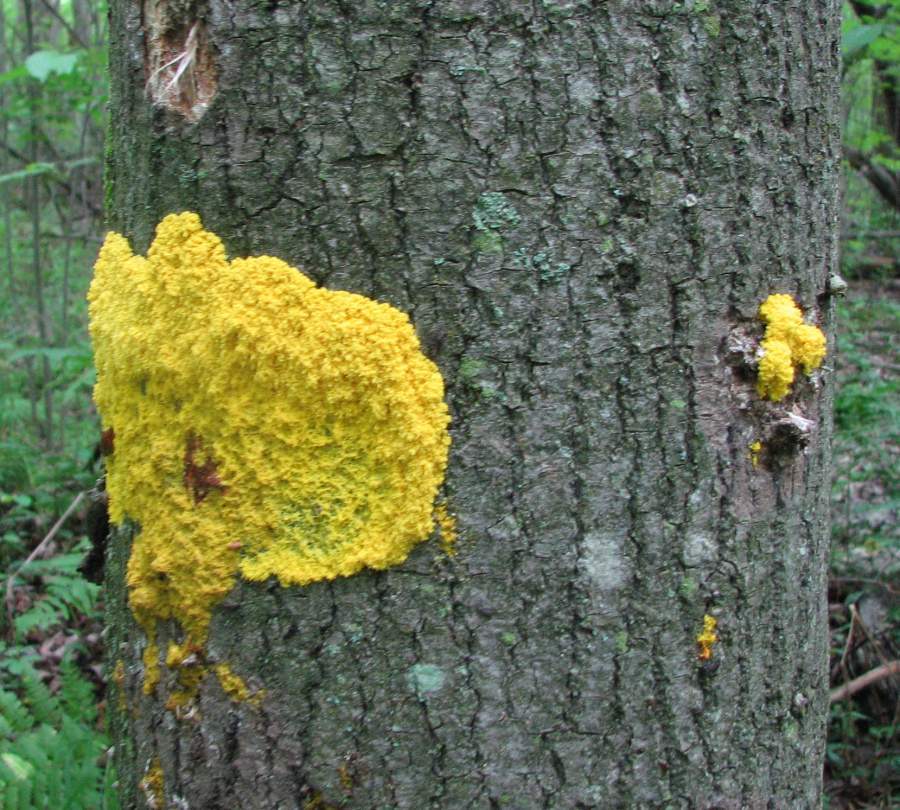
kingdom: Protozoa
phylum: Mycetozoa
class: Myxomycetes
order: Physarales
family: Physaraceae
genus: Fuligo
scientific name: Fuligo septica
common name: Dog vomit slime mold
